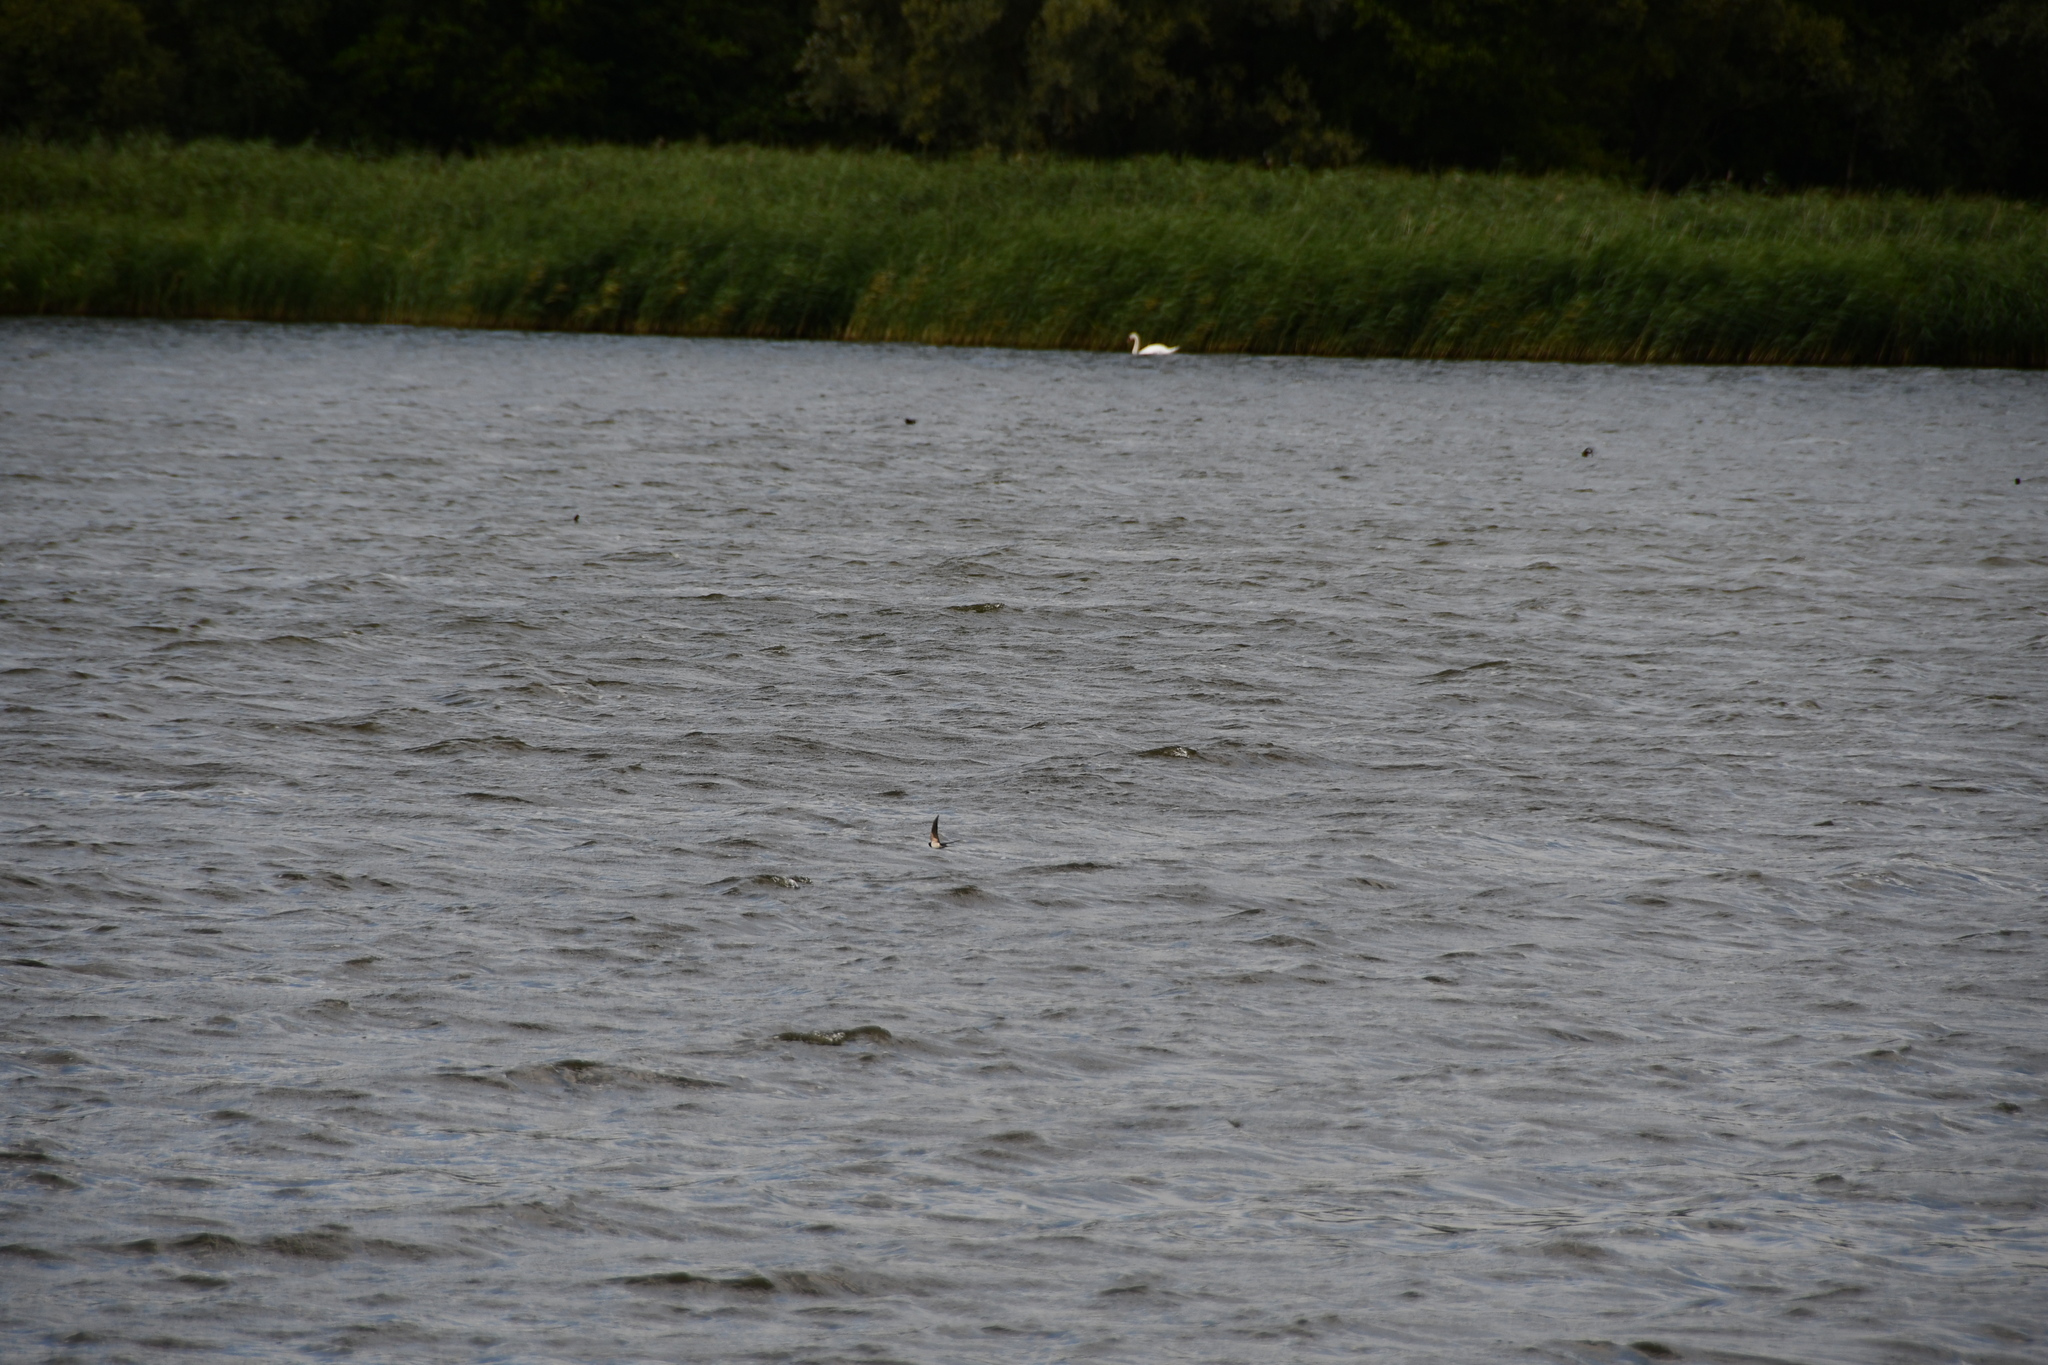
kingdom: Animalia
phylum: Chordata
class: Aves
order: Passeriformes
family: Hirundinidae
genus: Hirundo
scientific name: Hirundo rustica
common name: Barn swallow
